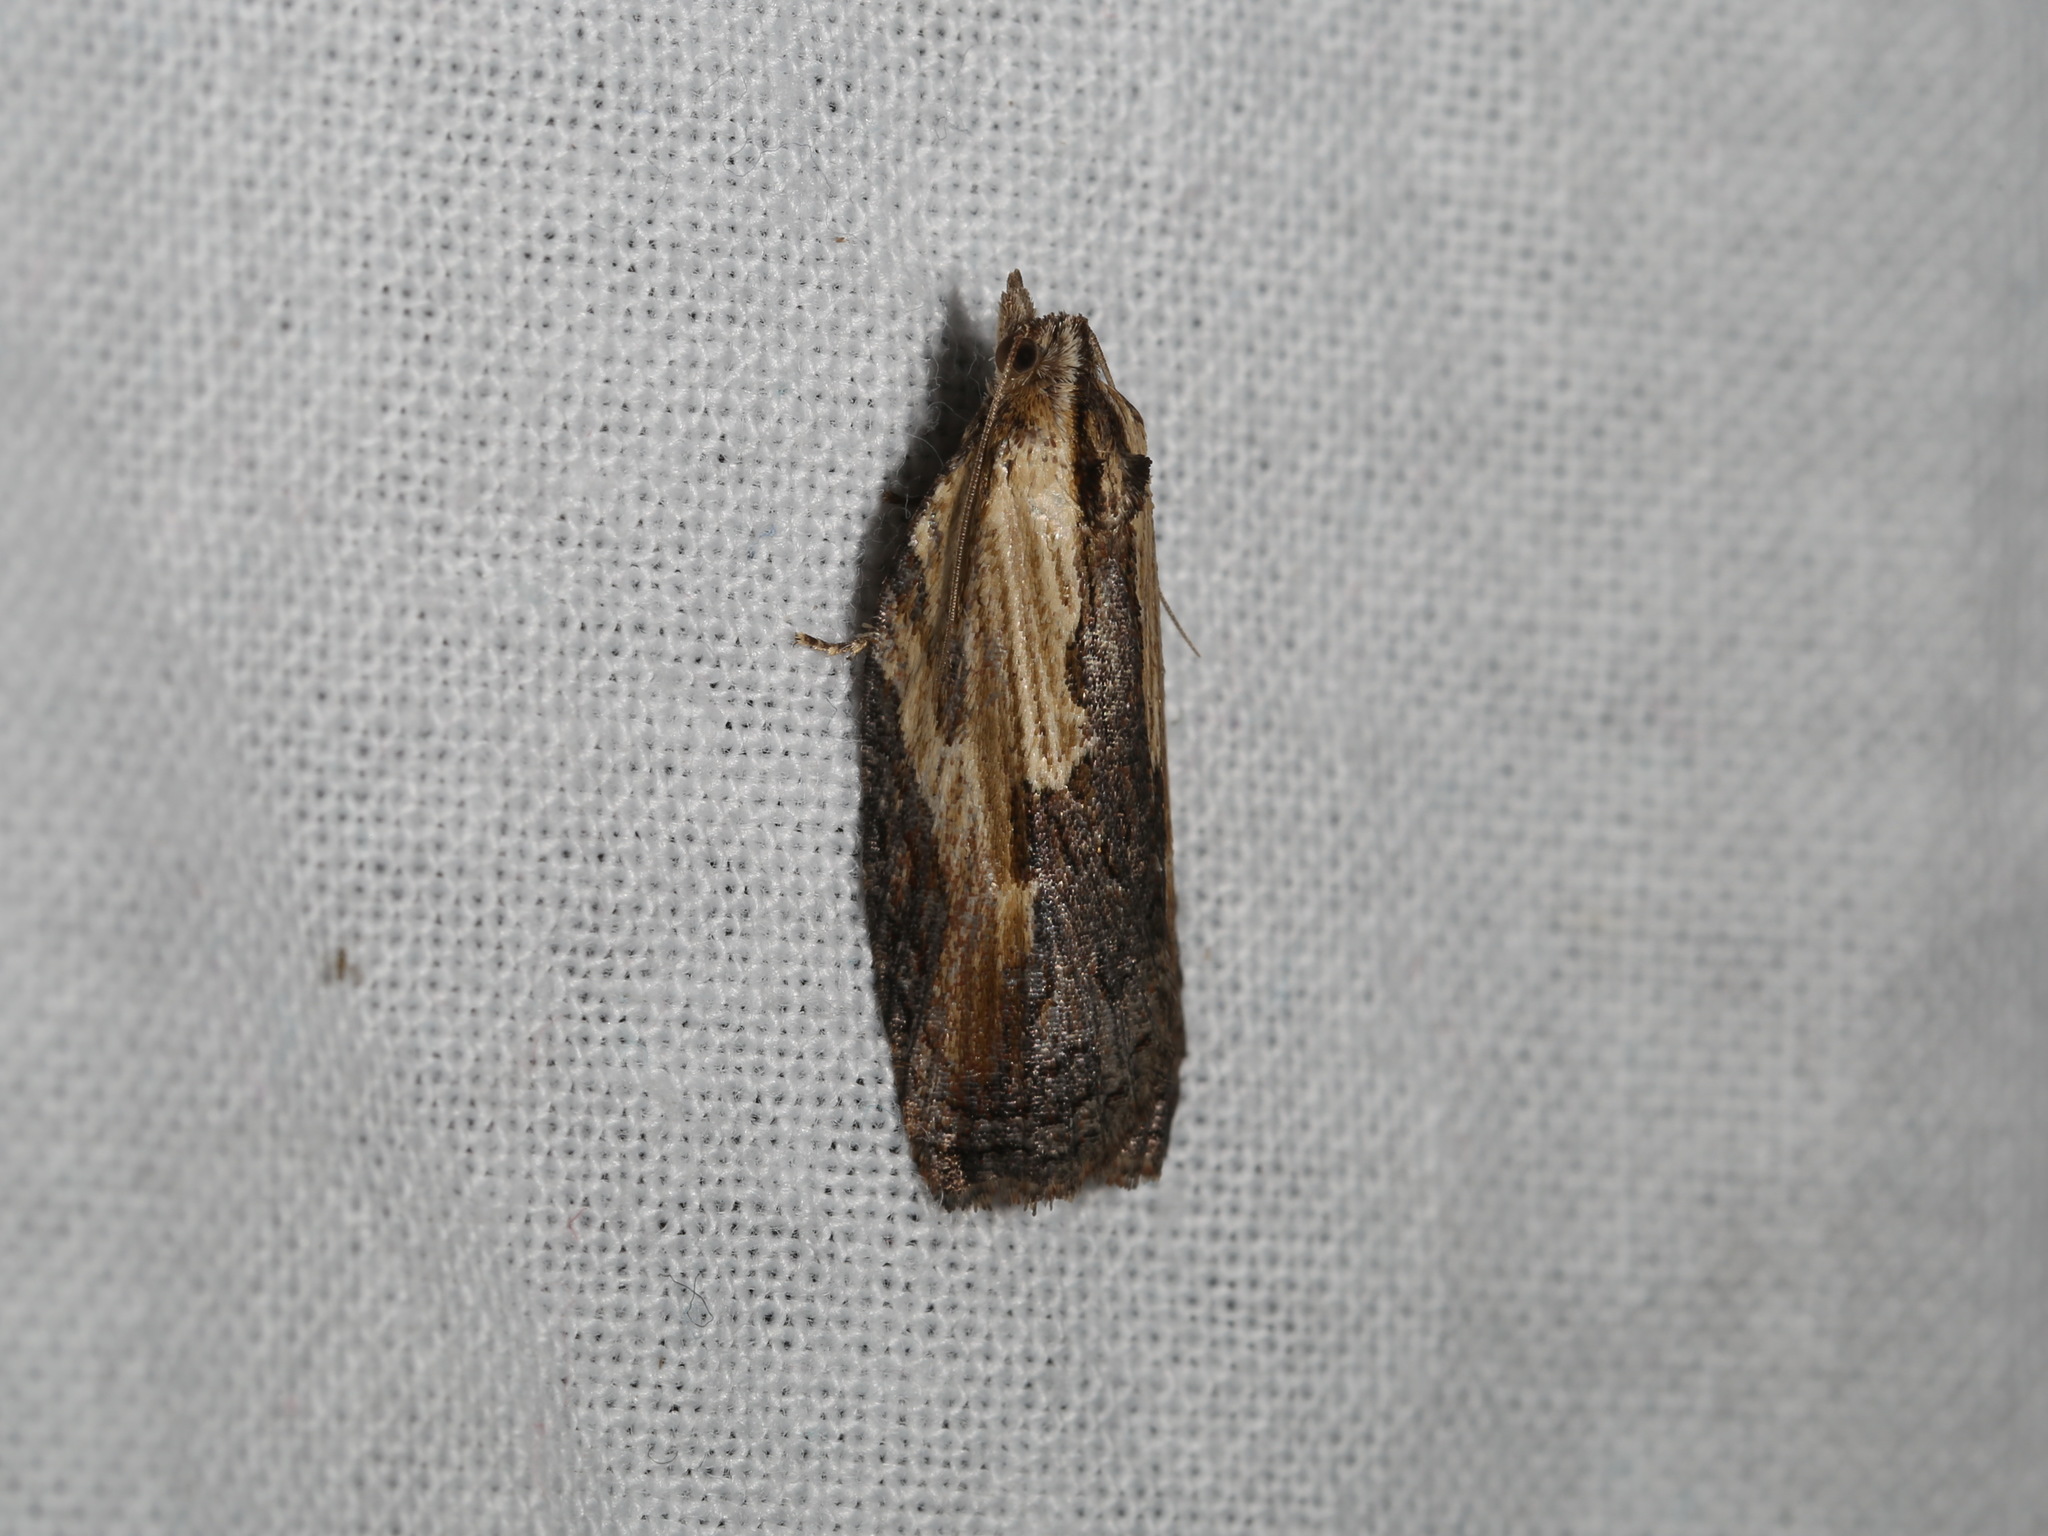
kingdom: Animalia
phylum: Arthropoda
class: Insecta
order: Lepidoptera
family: Tortricidae
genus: Cryptoptila
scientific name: Cryptoptila crypsilopha
